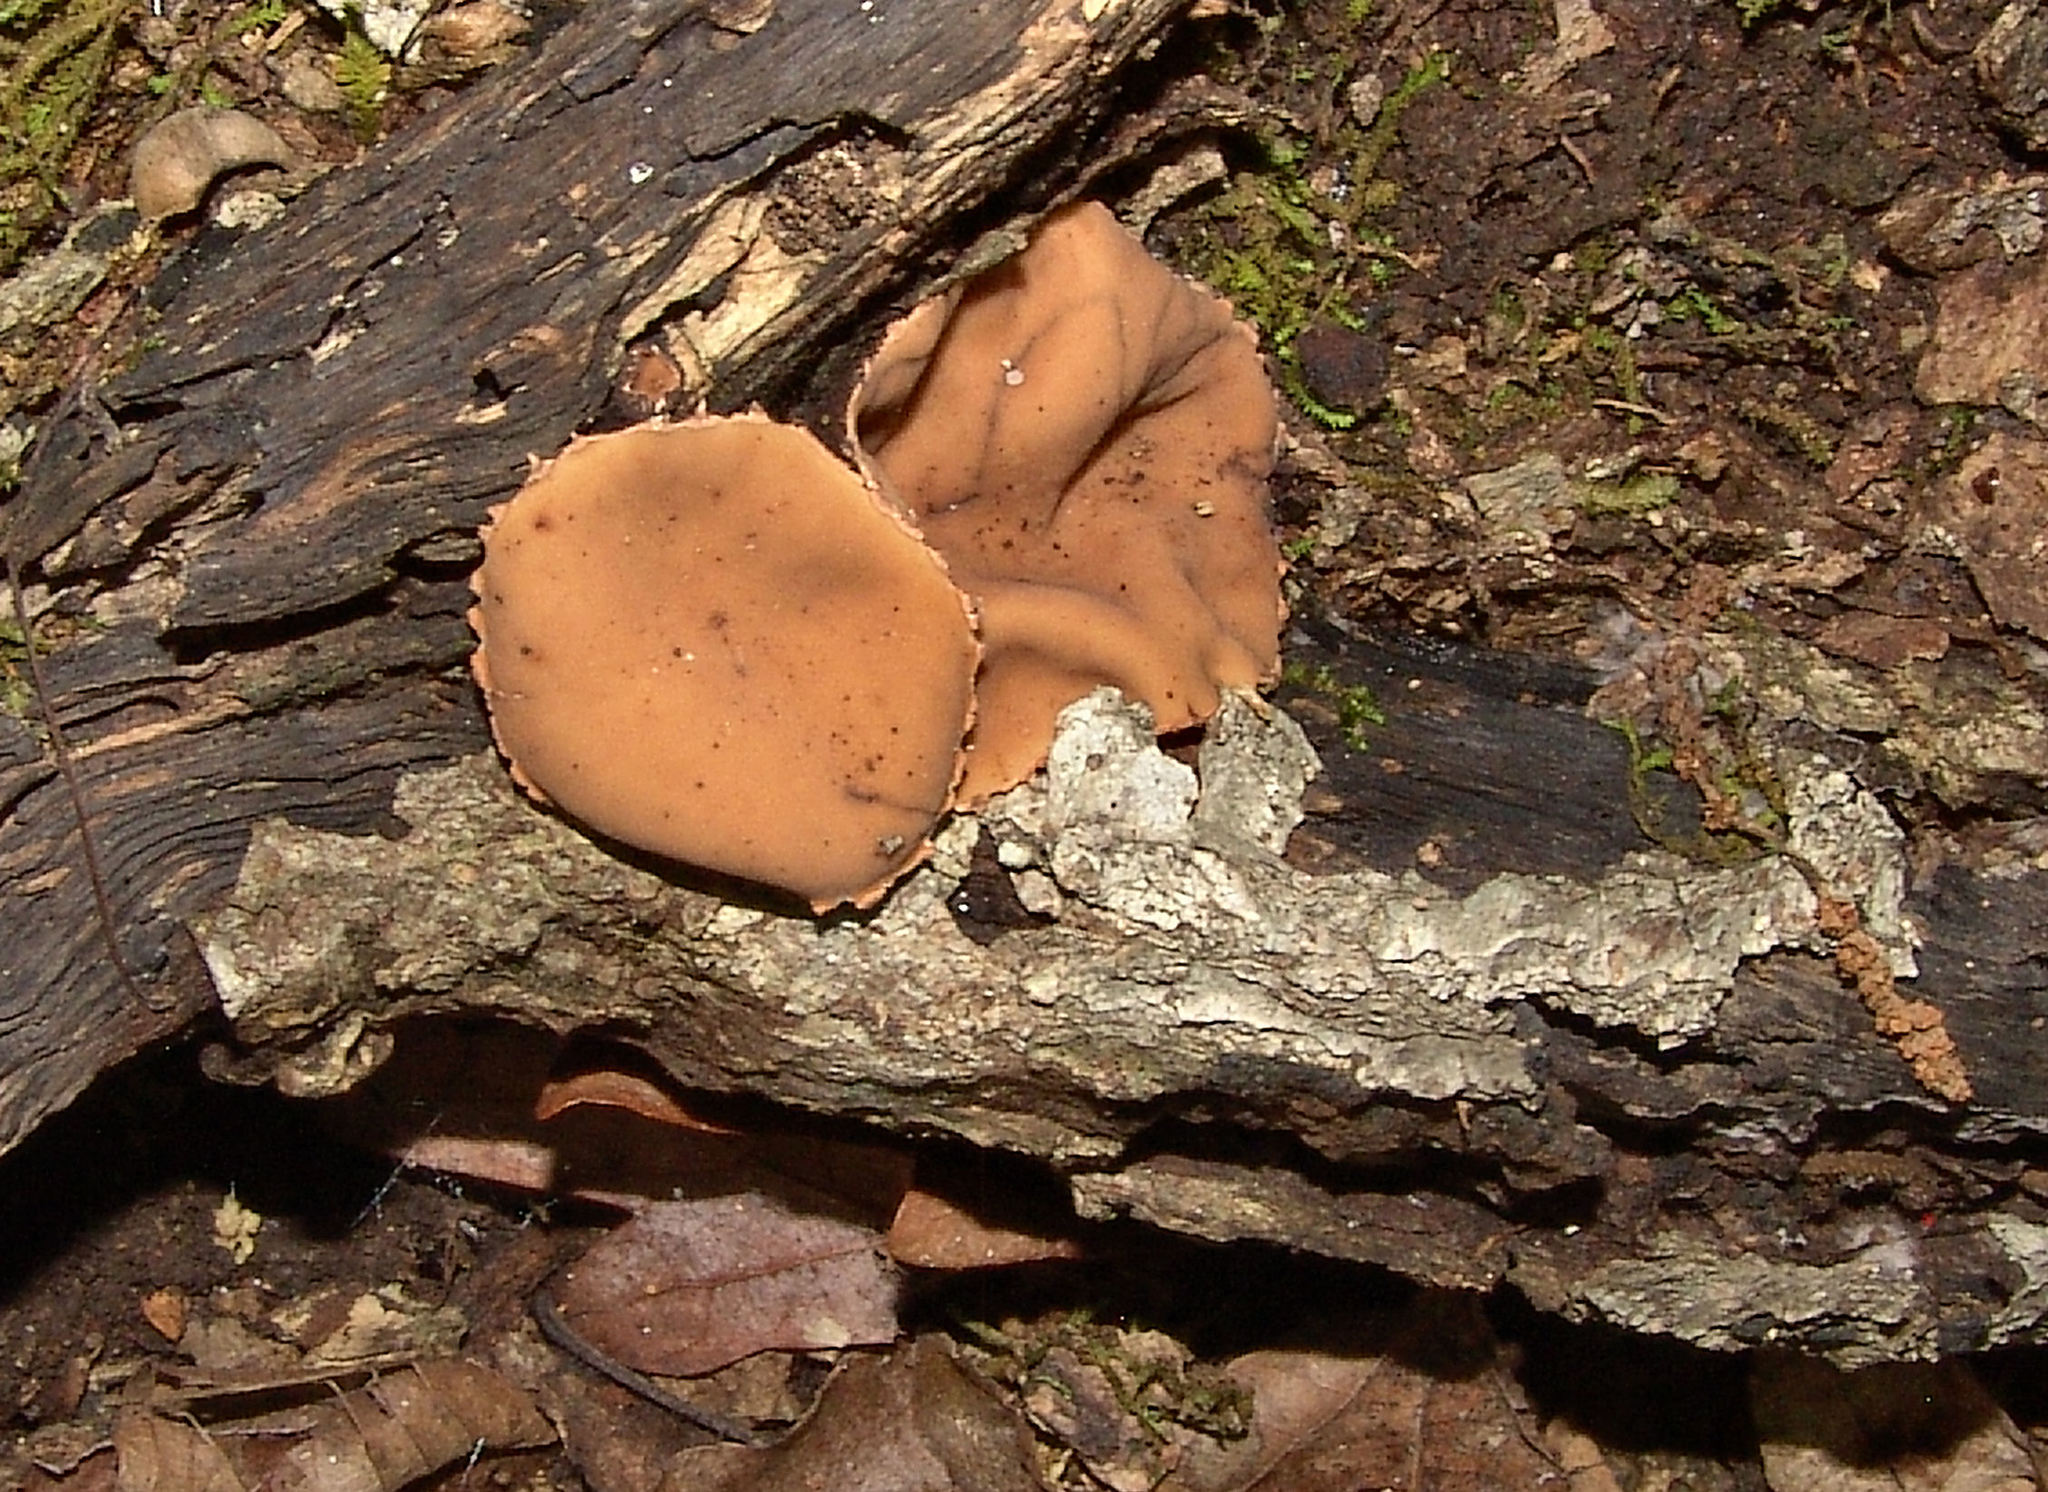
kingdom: Fungi
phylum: Ascomycota
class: Pezizomycetes
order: Pezizales
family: Sarcosomataceae
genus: Galiella
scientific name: Galiella rufa
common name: Hairy rubber cup
